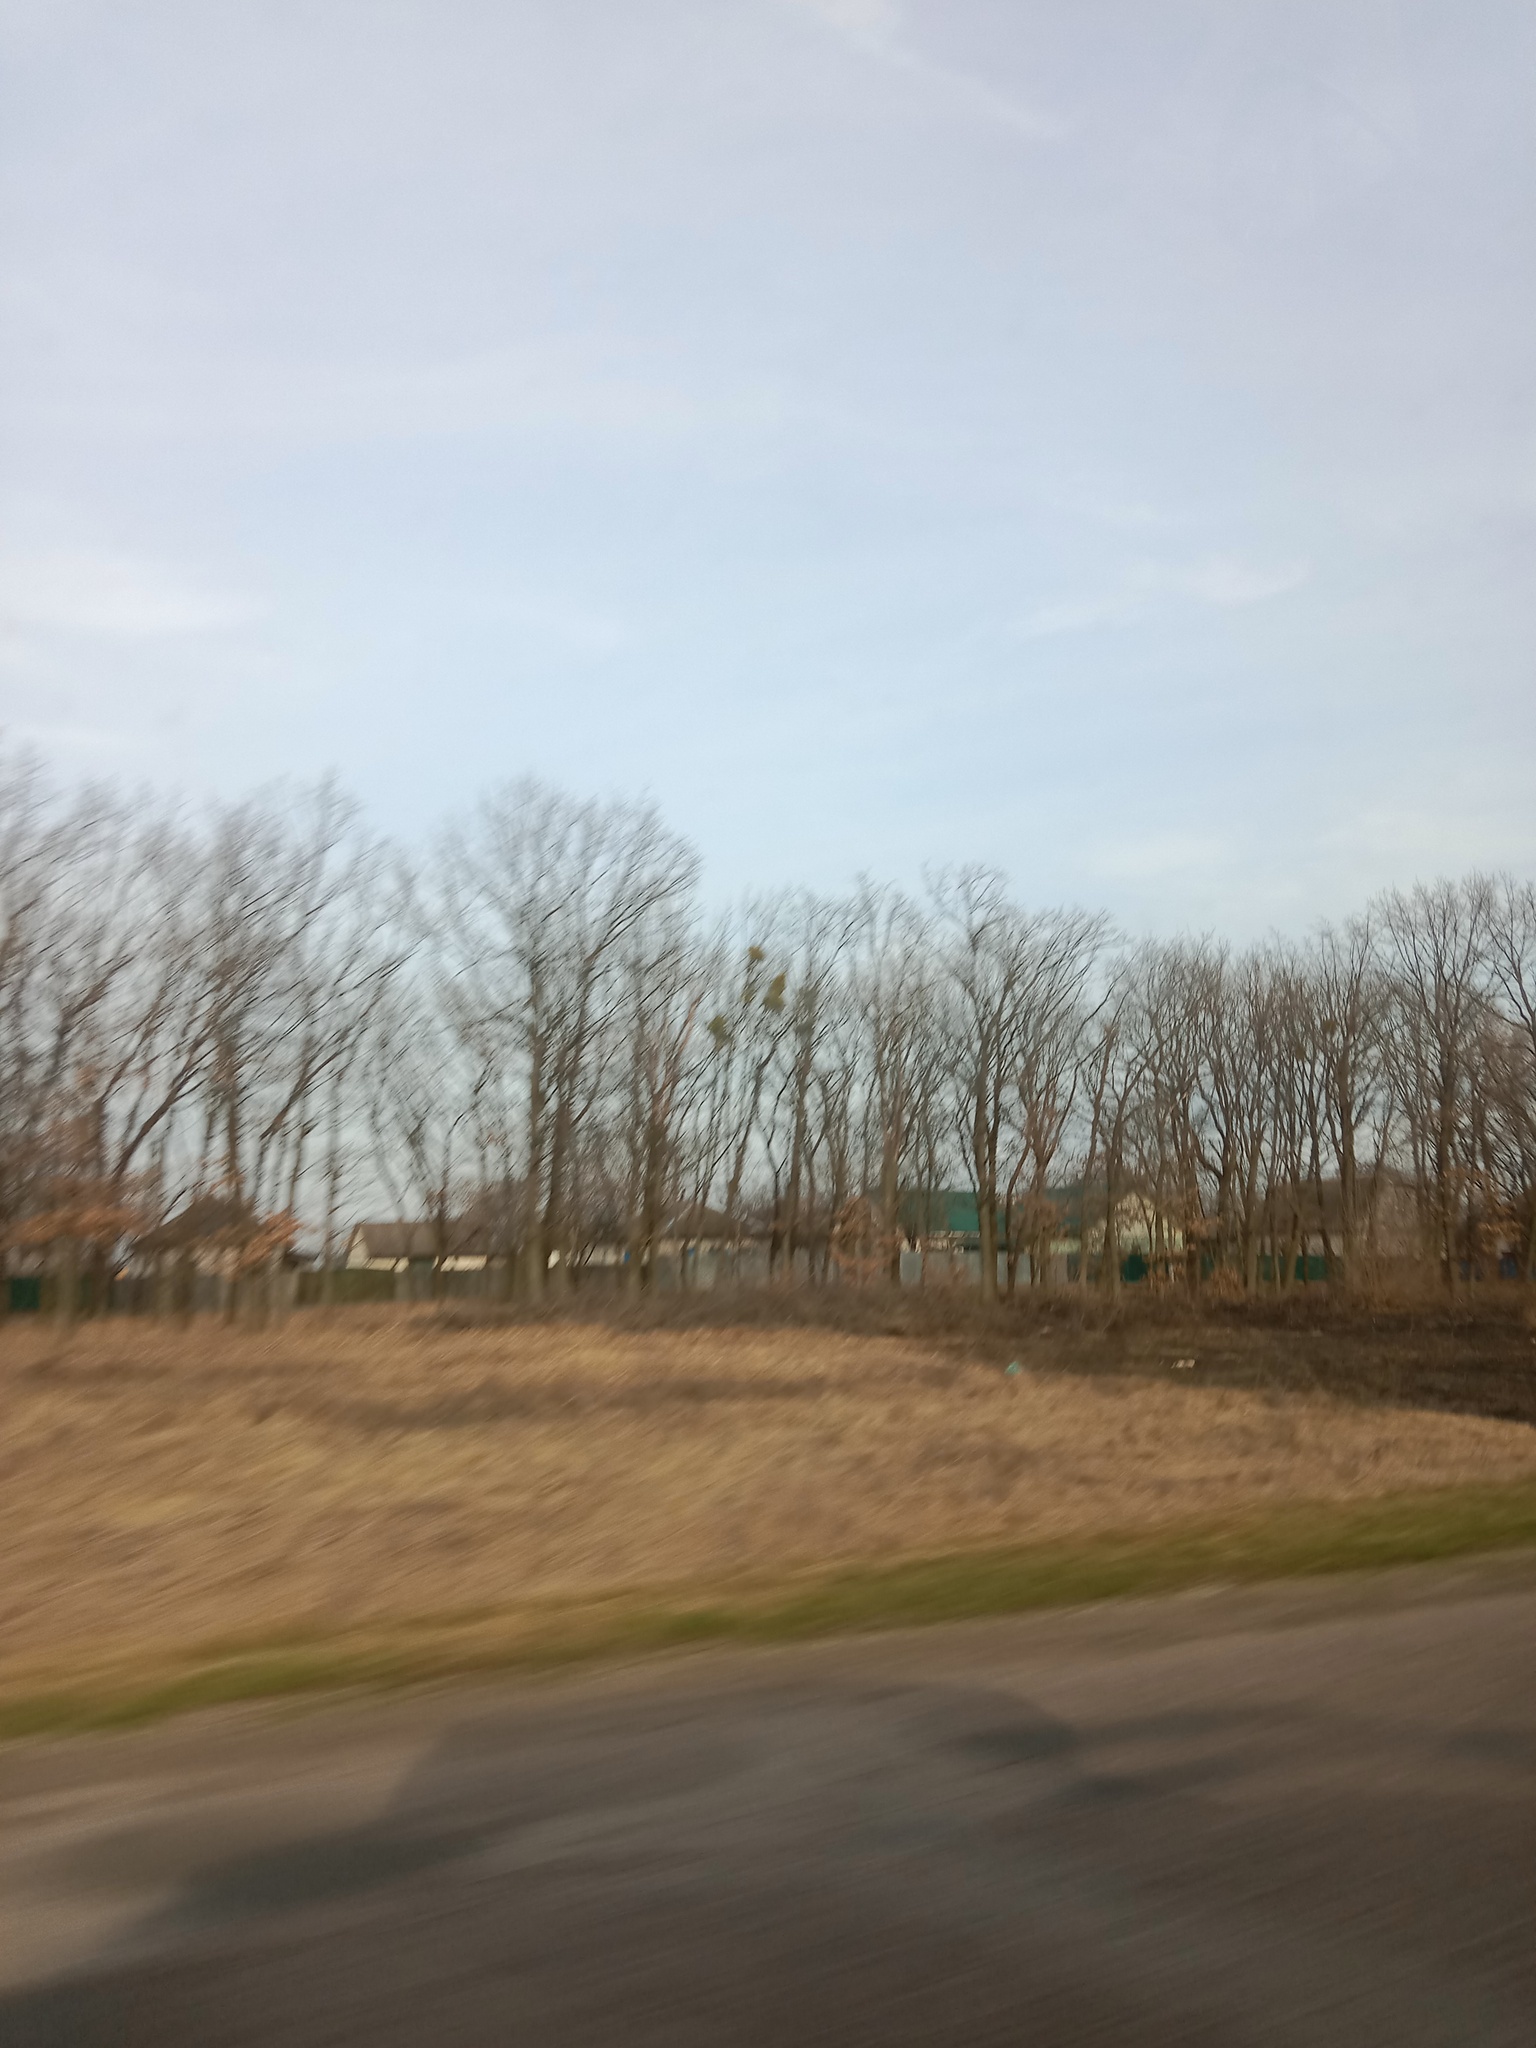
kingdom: Plantae
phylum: Tracheophyta
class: Magnoliopsida
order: Santalales
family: Viscaceae
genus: Viscum
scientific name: Viscum album
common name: Mistletoe
